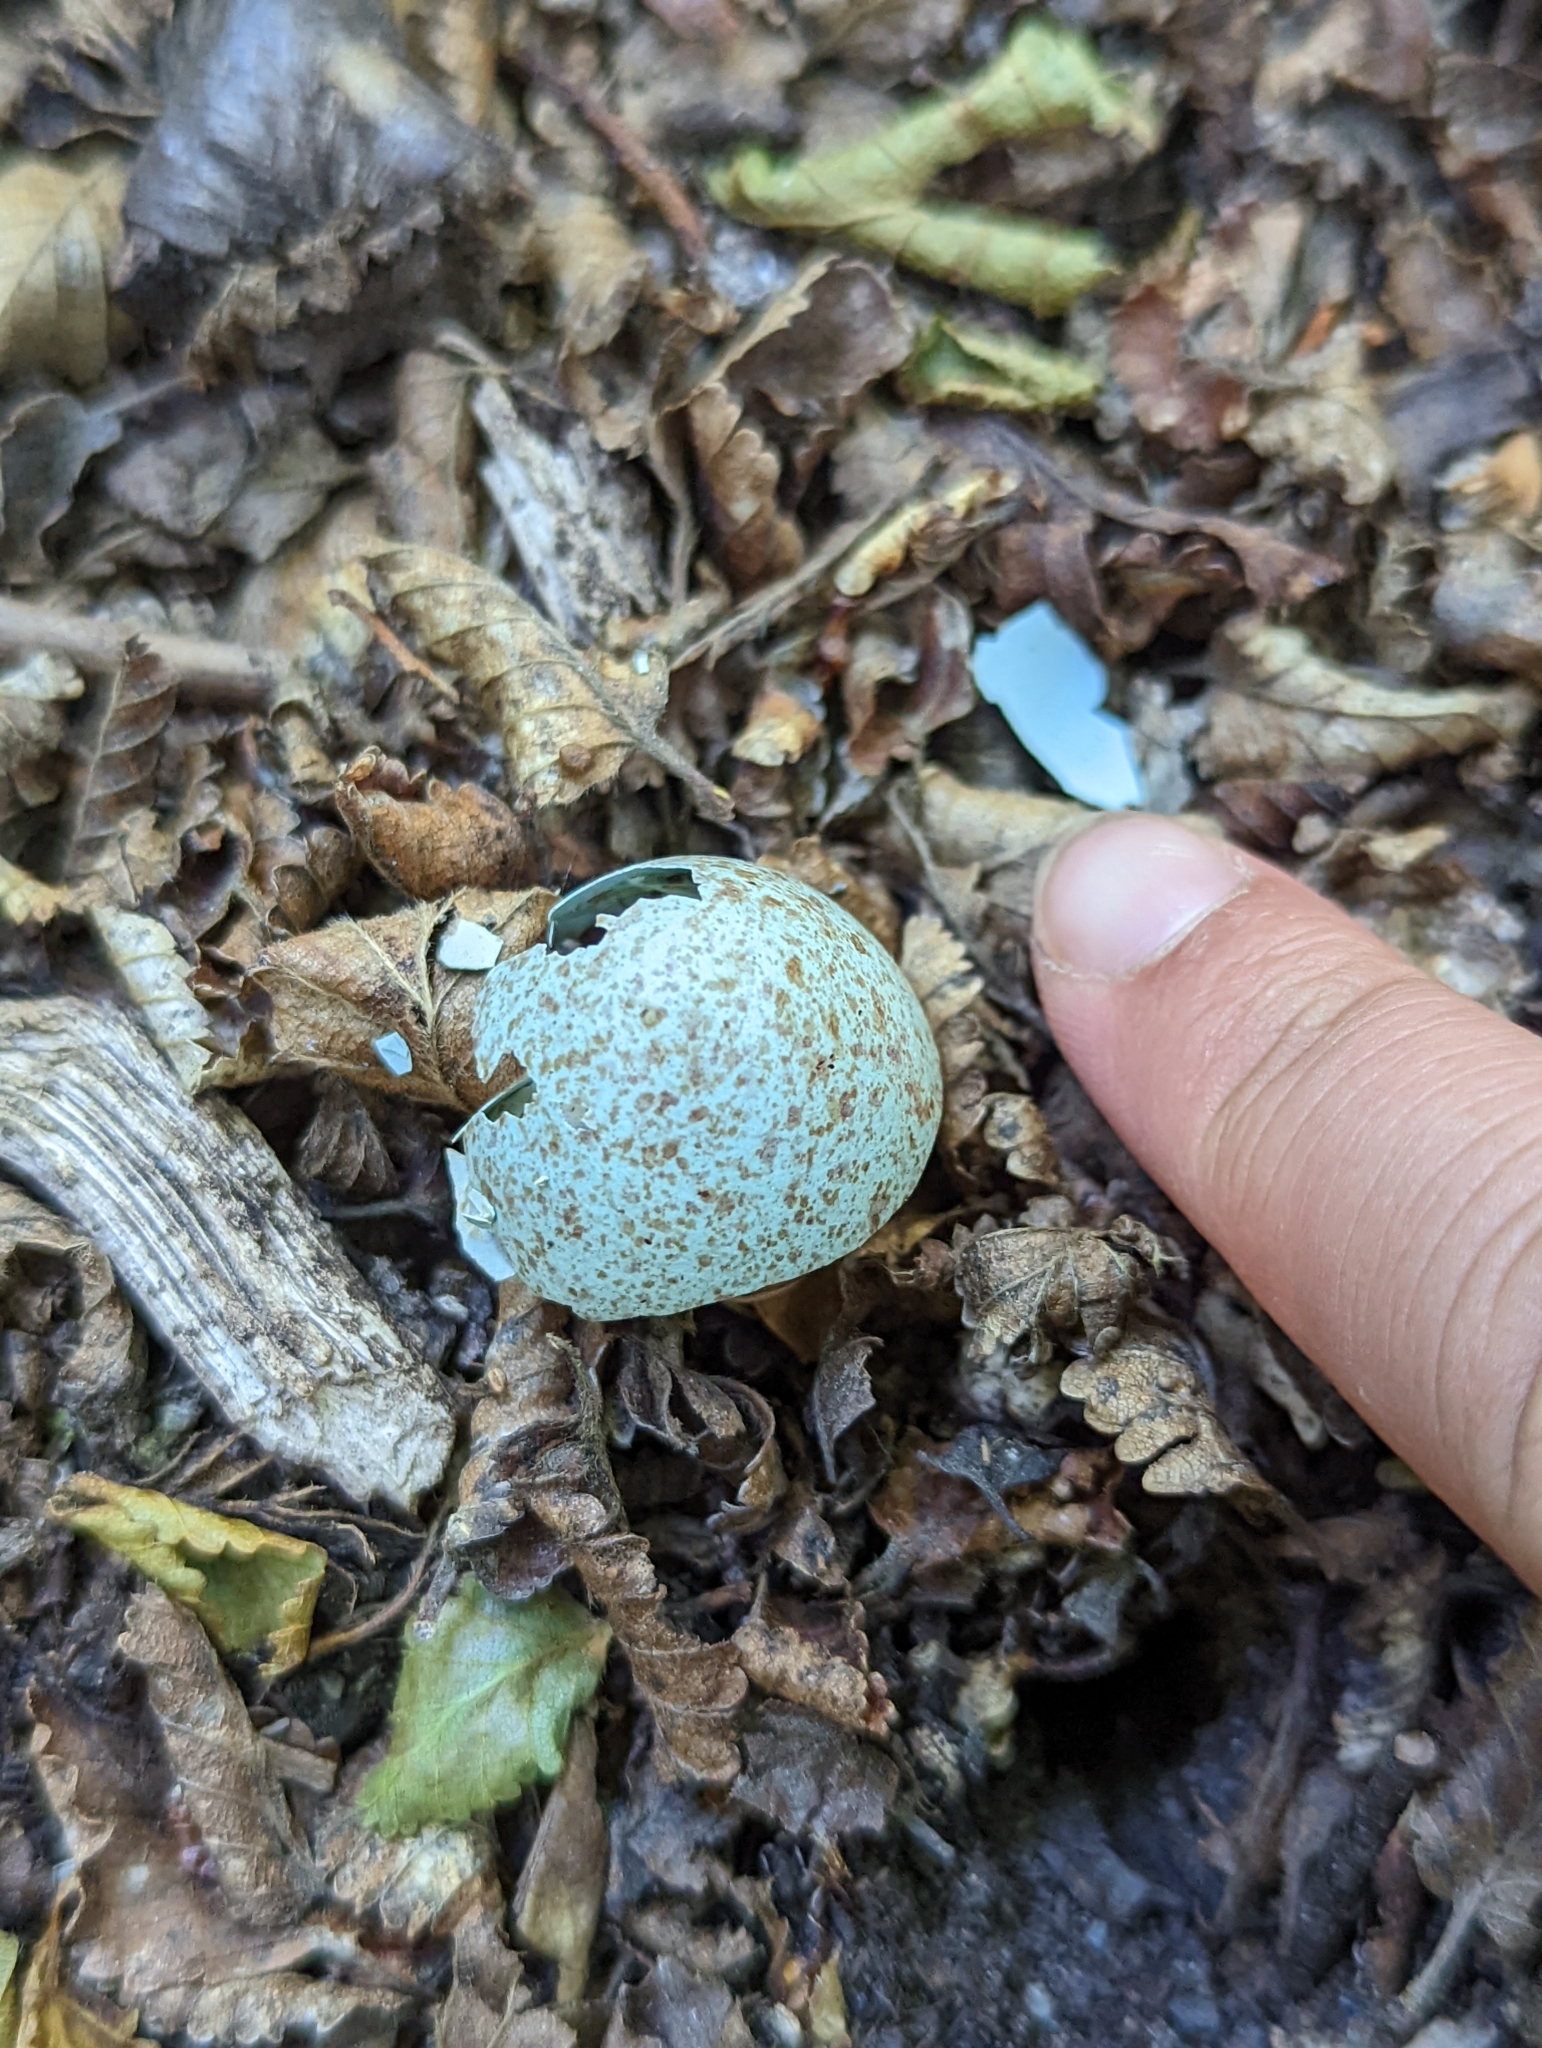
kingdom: Animalia
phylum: Chordata
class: Aves
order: Passeriformes
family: Turdidae
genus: Turdus
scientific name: Turdus falcklandii
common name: Austral thrush
